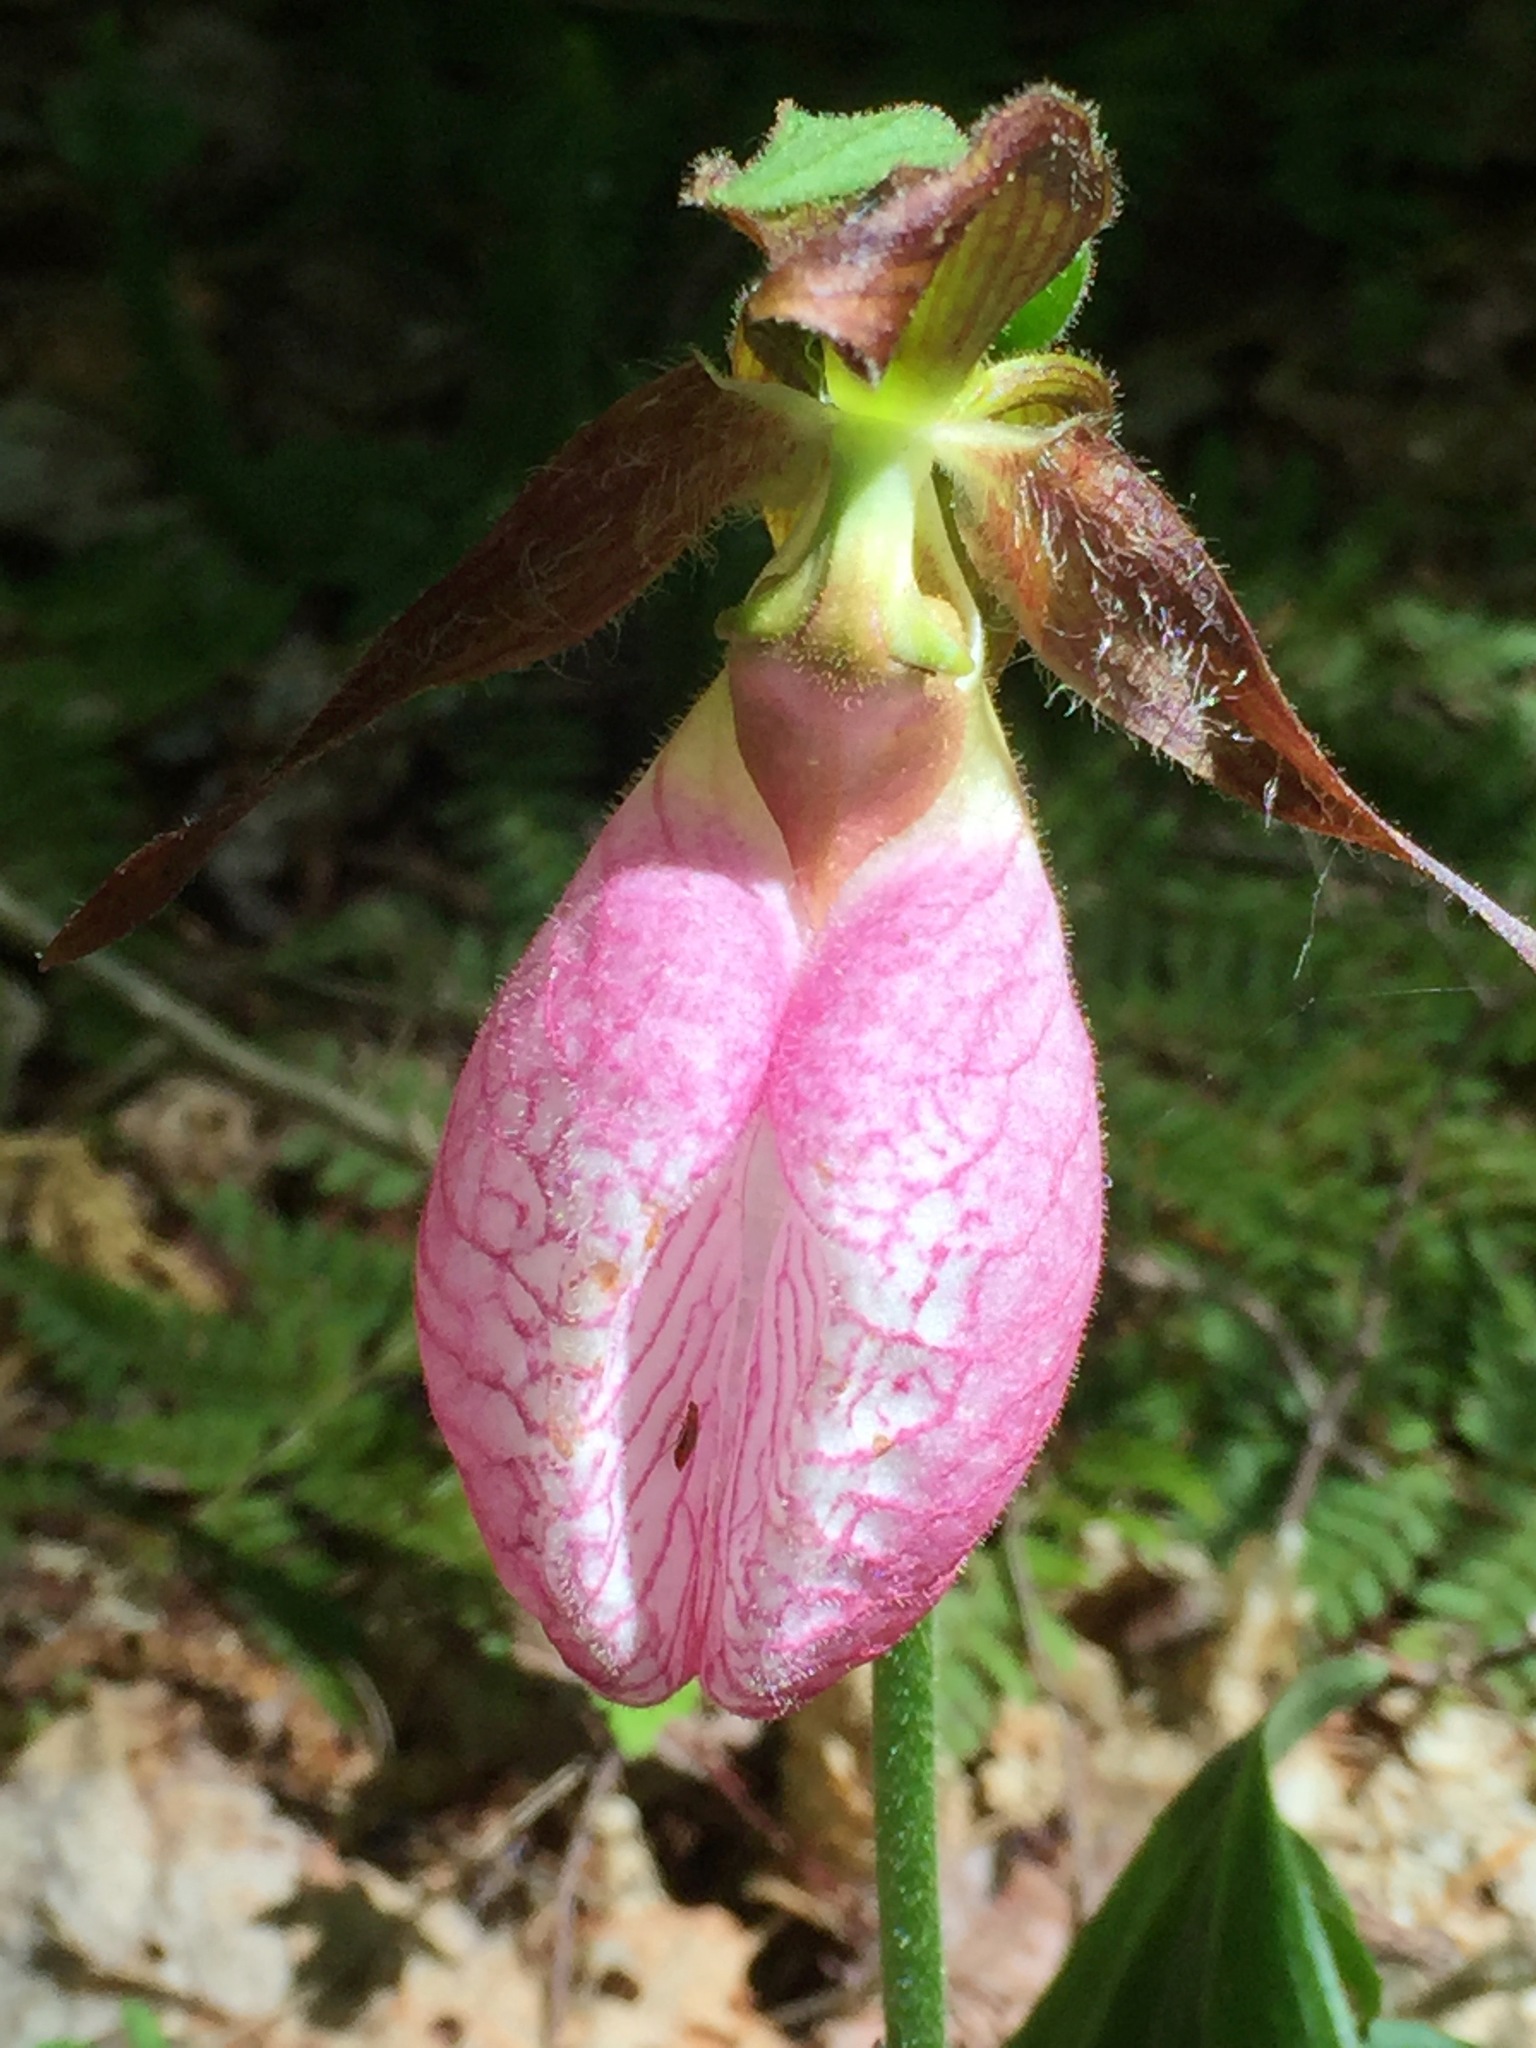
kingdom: Plantae
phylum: Tracheophyta
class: Liliopsida
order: Asparagales
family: Orchidaceae
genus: Cypripedium
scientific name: Cypripedium acaule
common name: Pink lady's-slipper
